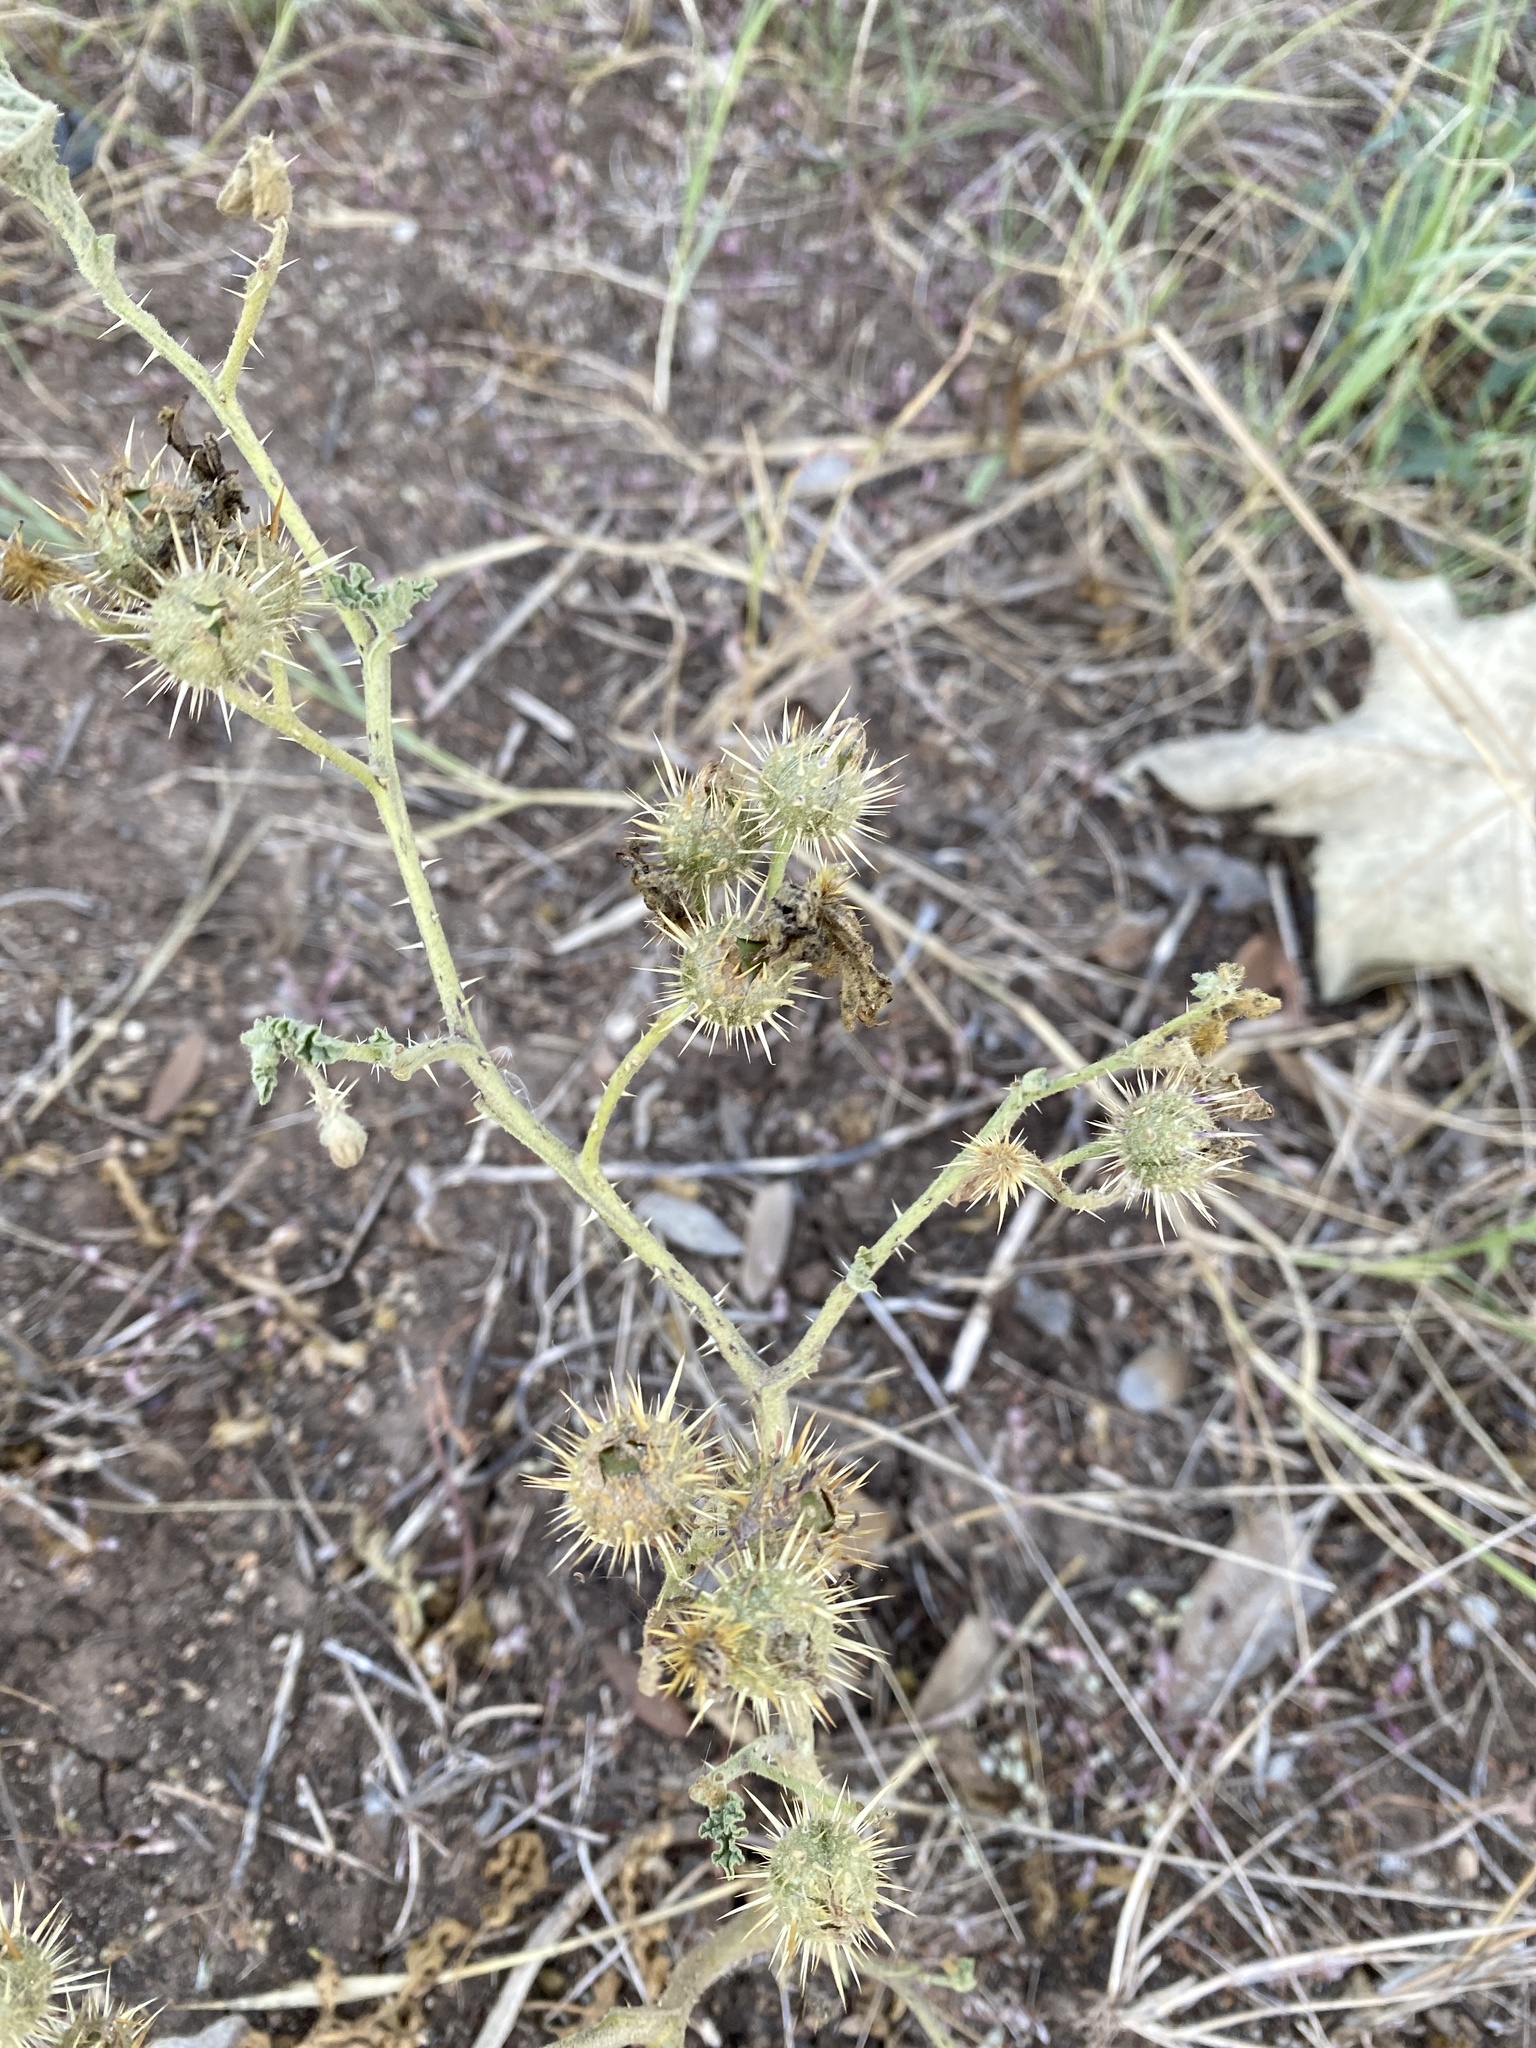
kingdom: Plantae
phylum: Tracheophyta
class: Magnoliopsida
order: Solanales
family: Solanaceae
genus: Solanum
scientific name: Solanum angustifolium
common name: Buffalobur nightshade
